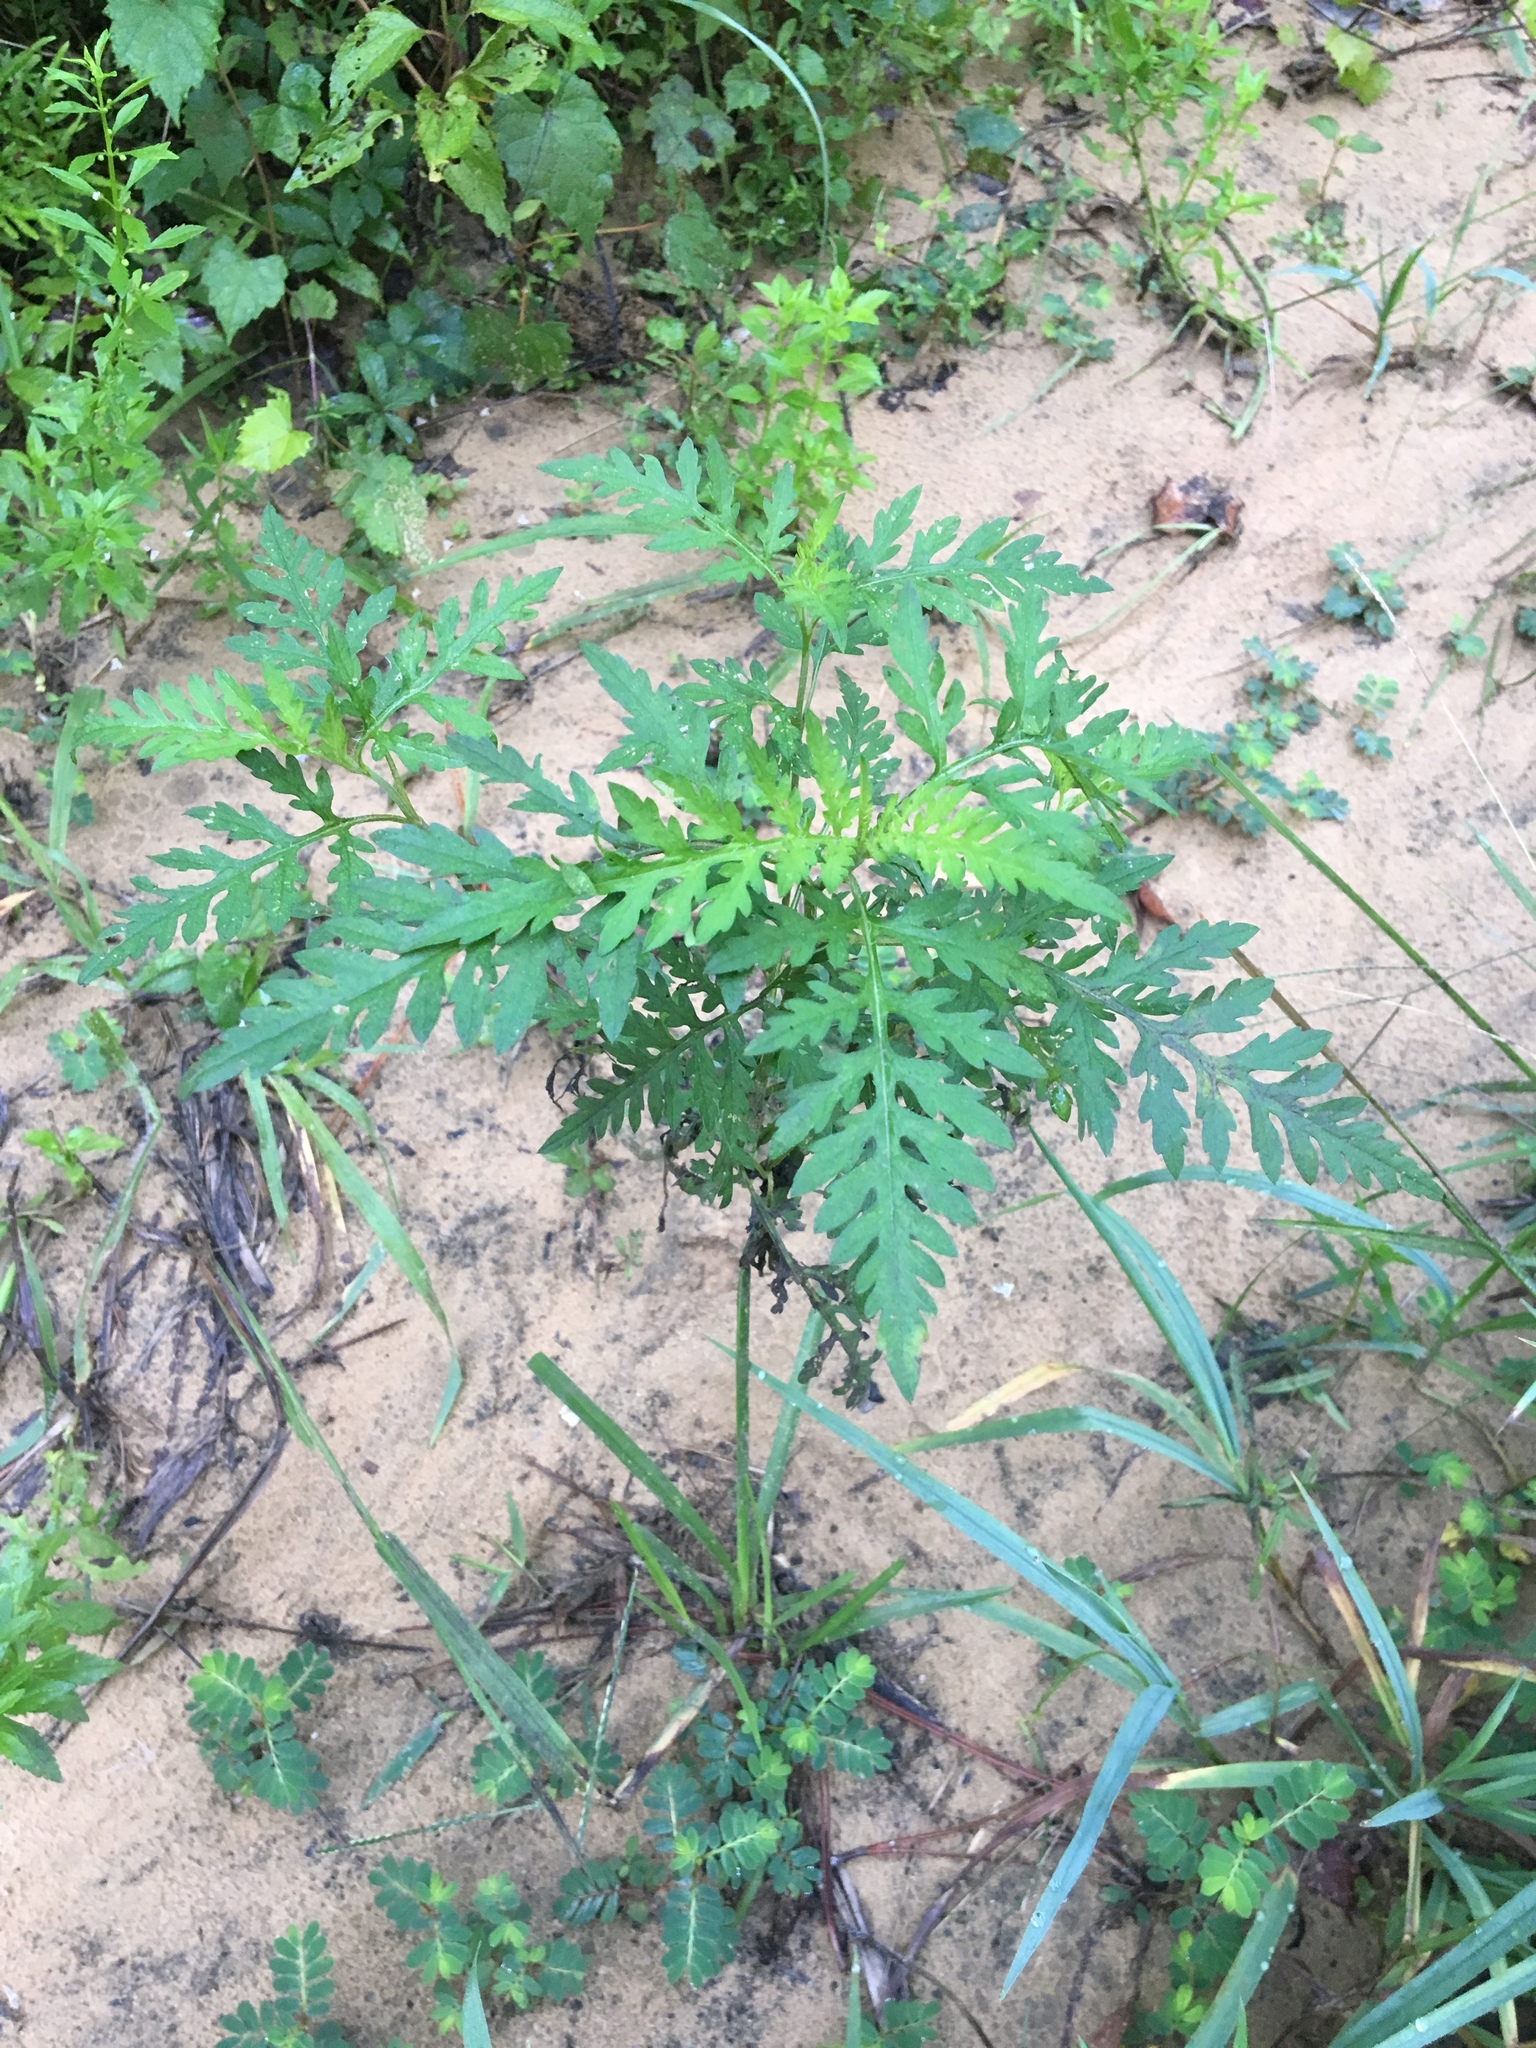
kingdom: Plantae
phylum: Tracheophyta
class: Magnoliopsida
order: Asterales
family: Asteraceae
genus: Ambrosia
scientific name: Ambrosia artemisiifolia
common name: Annual ragweed
